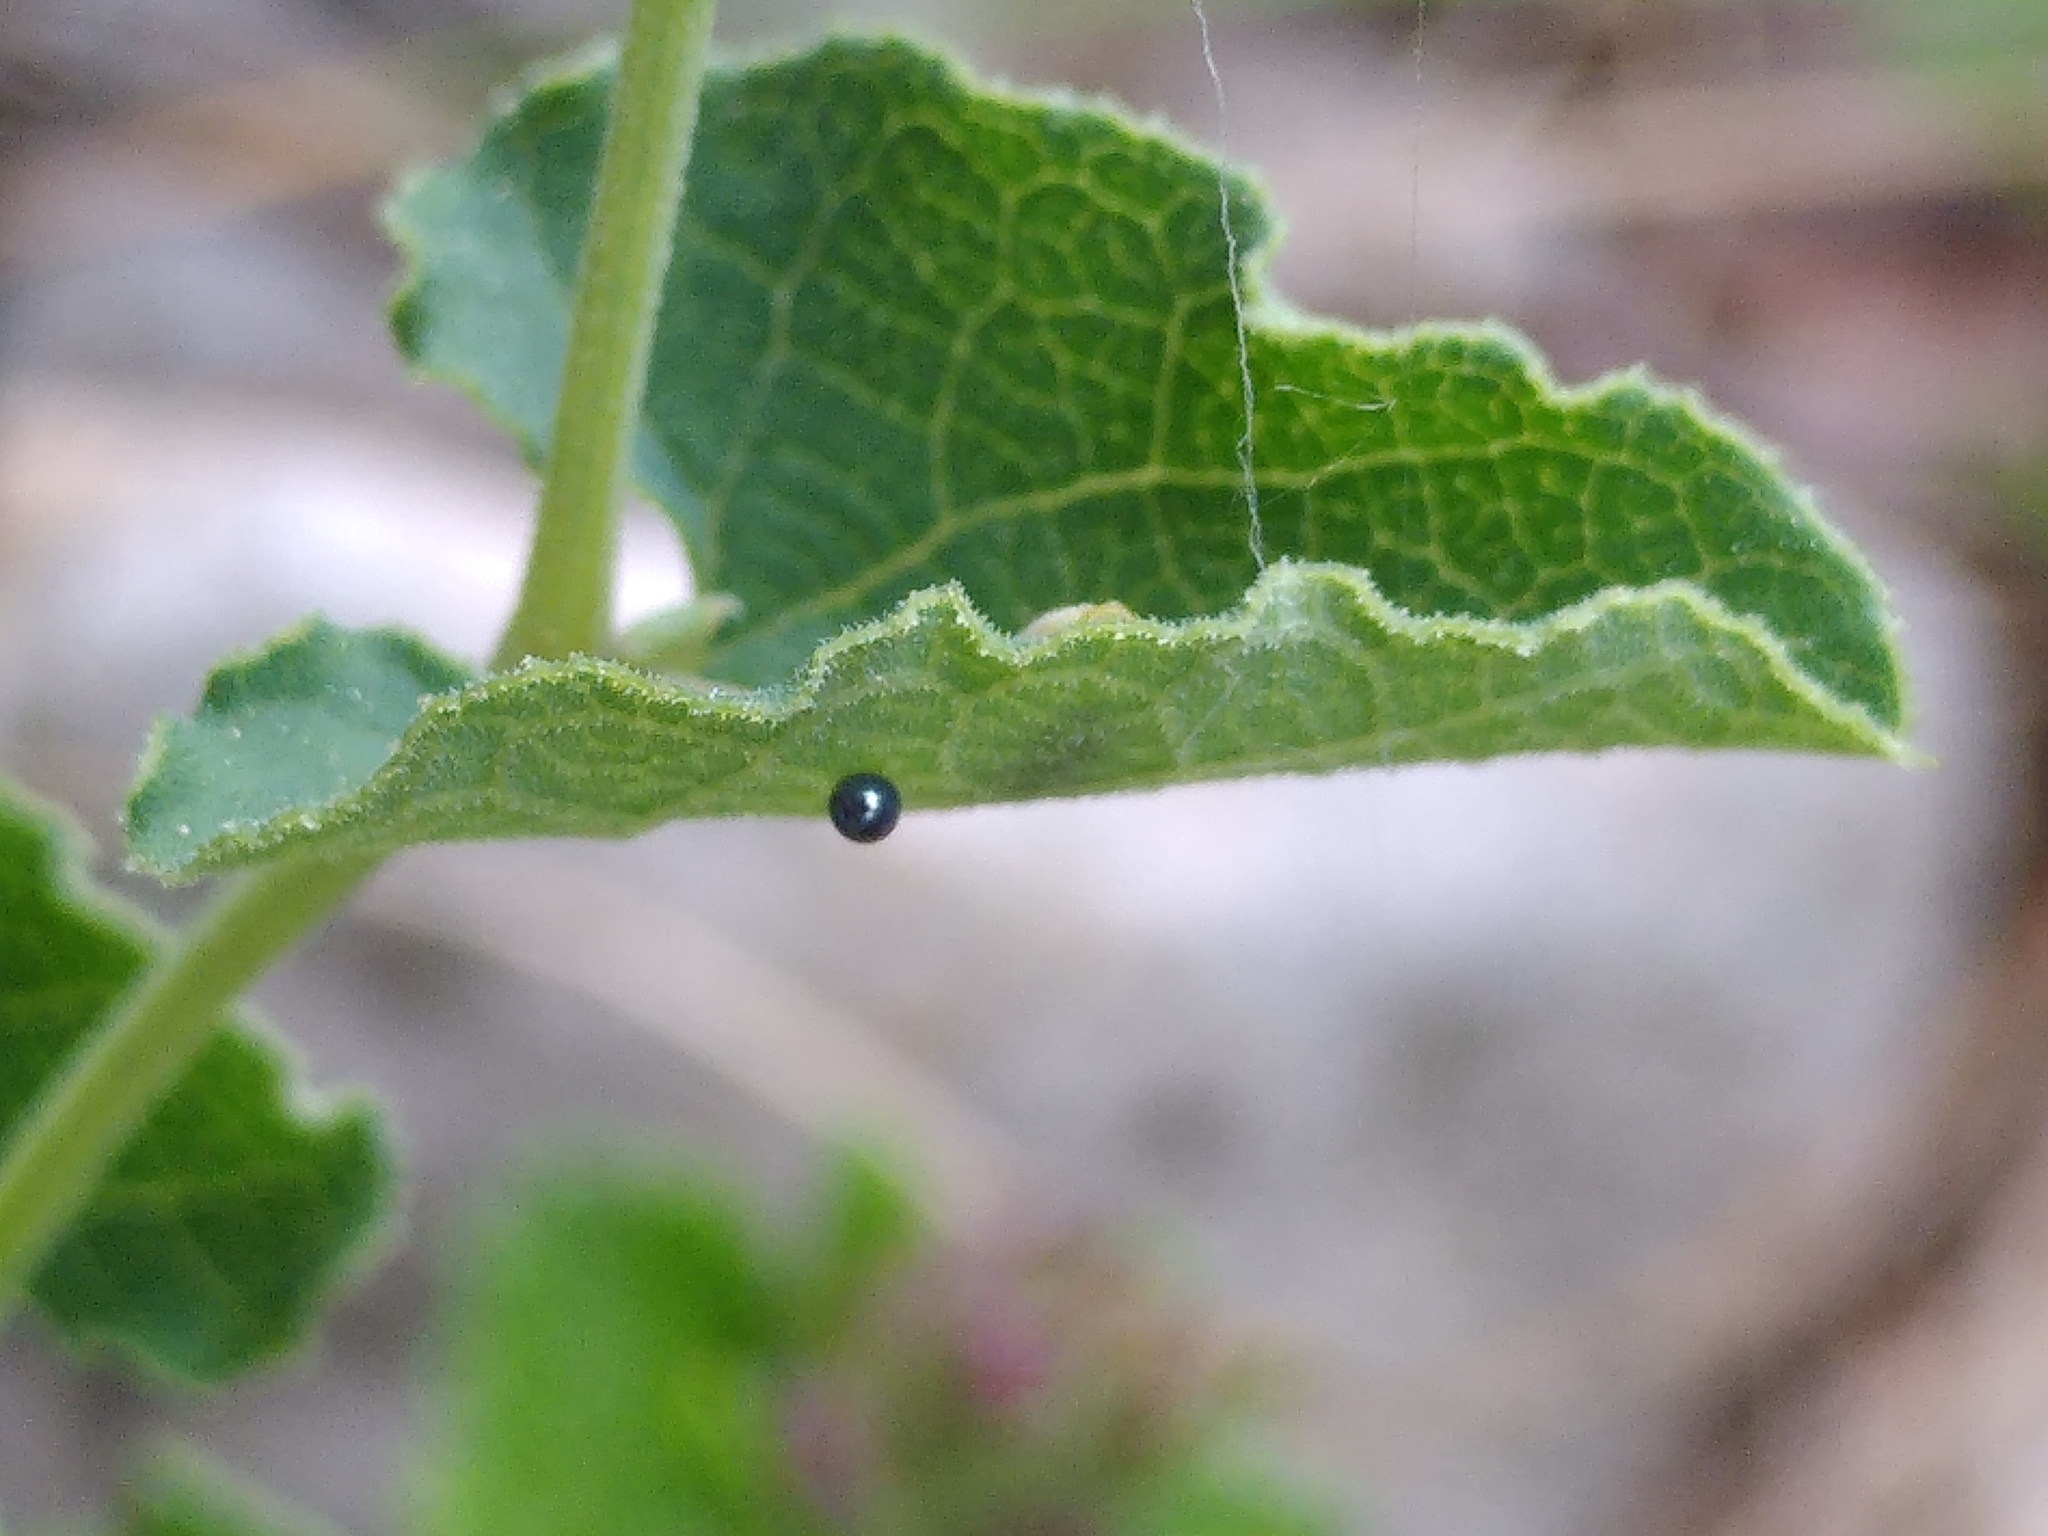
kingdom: Animalia
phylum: Arthropoda
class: Insecta
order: Lepidoptera
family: Papilionidae
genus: Zerynthia
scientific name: Zerynthia rumina
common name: Spanish festoon
